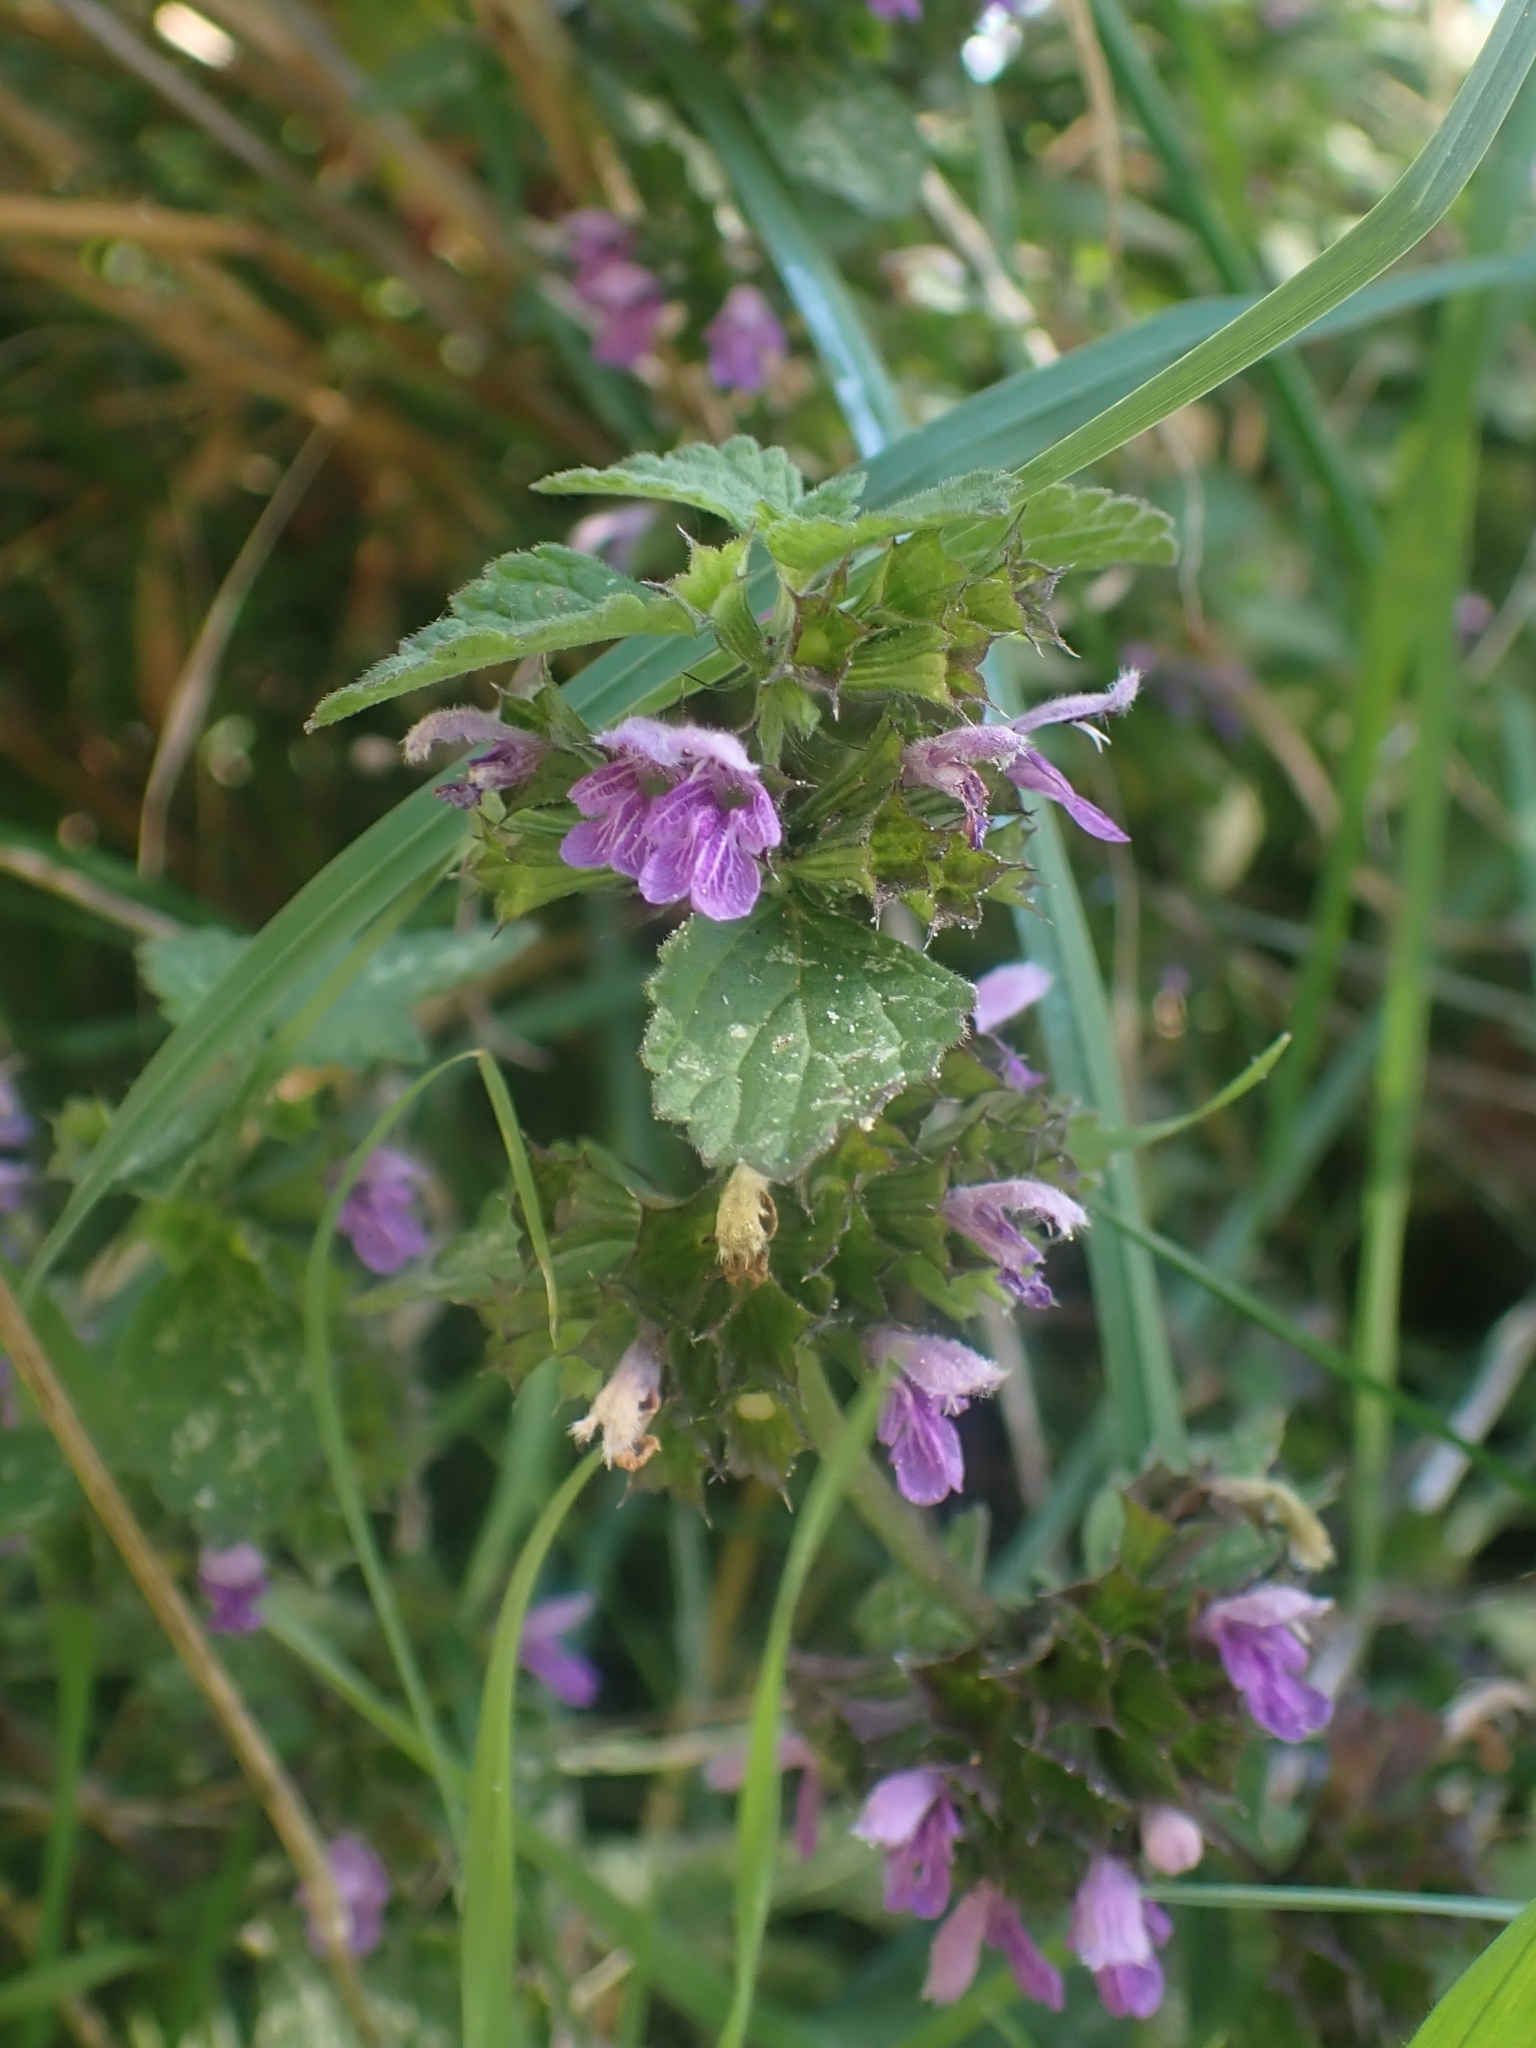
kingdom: Plantae
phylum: Tracheophyta
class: Magnoliopsida
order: Lamiales
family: Lamiaceae
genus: Ballota
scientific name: Ballota nigra
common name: Black horehound
